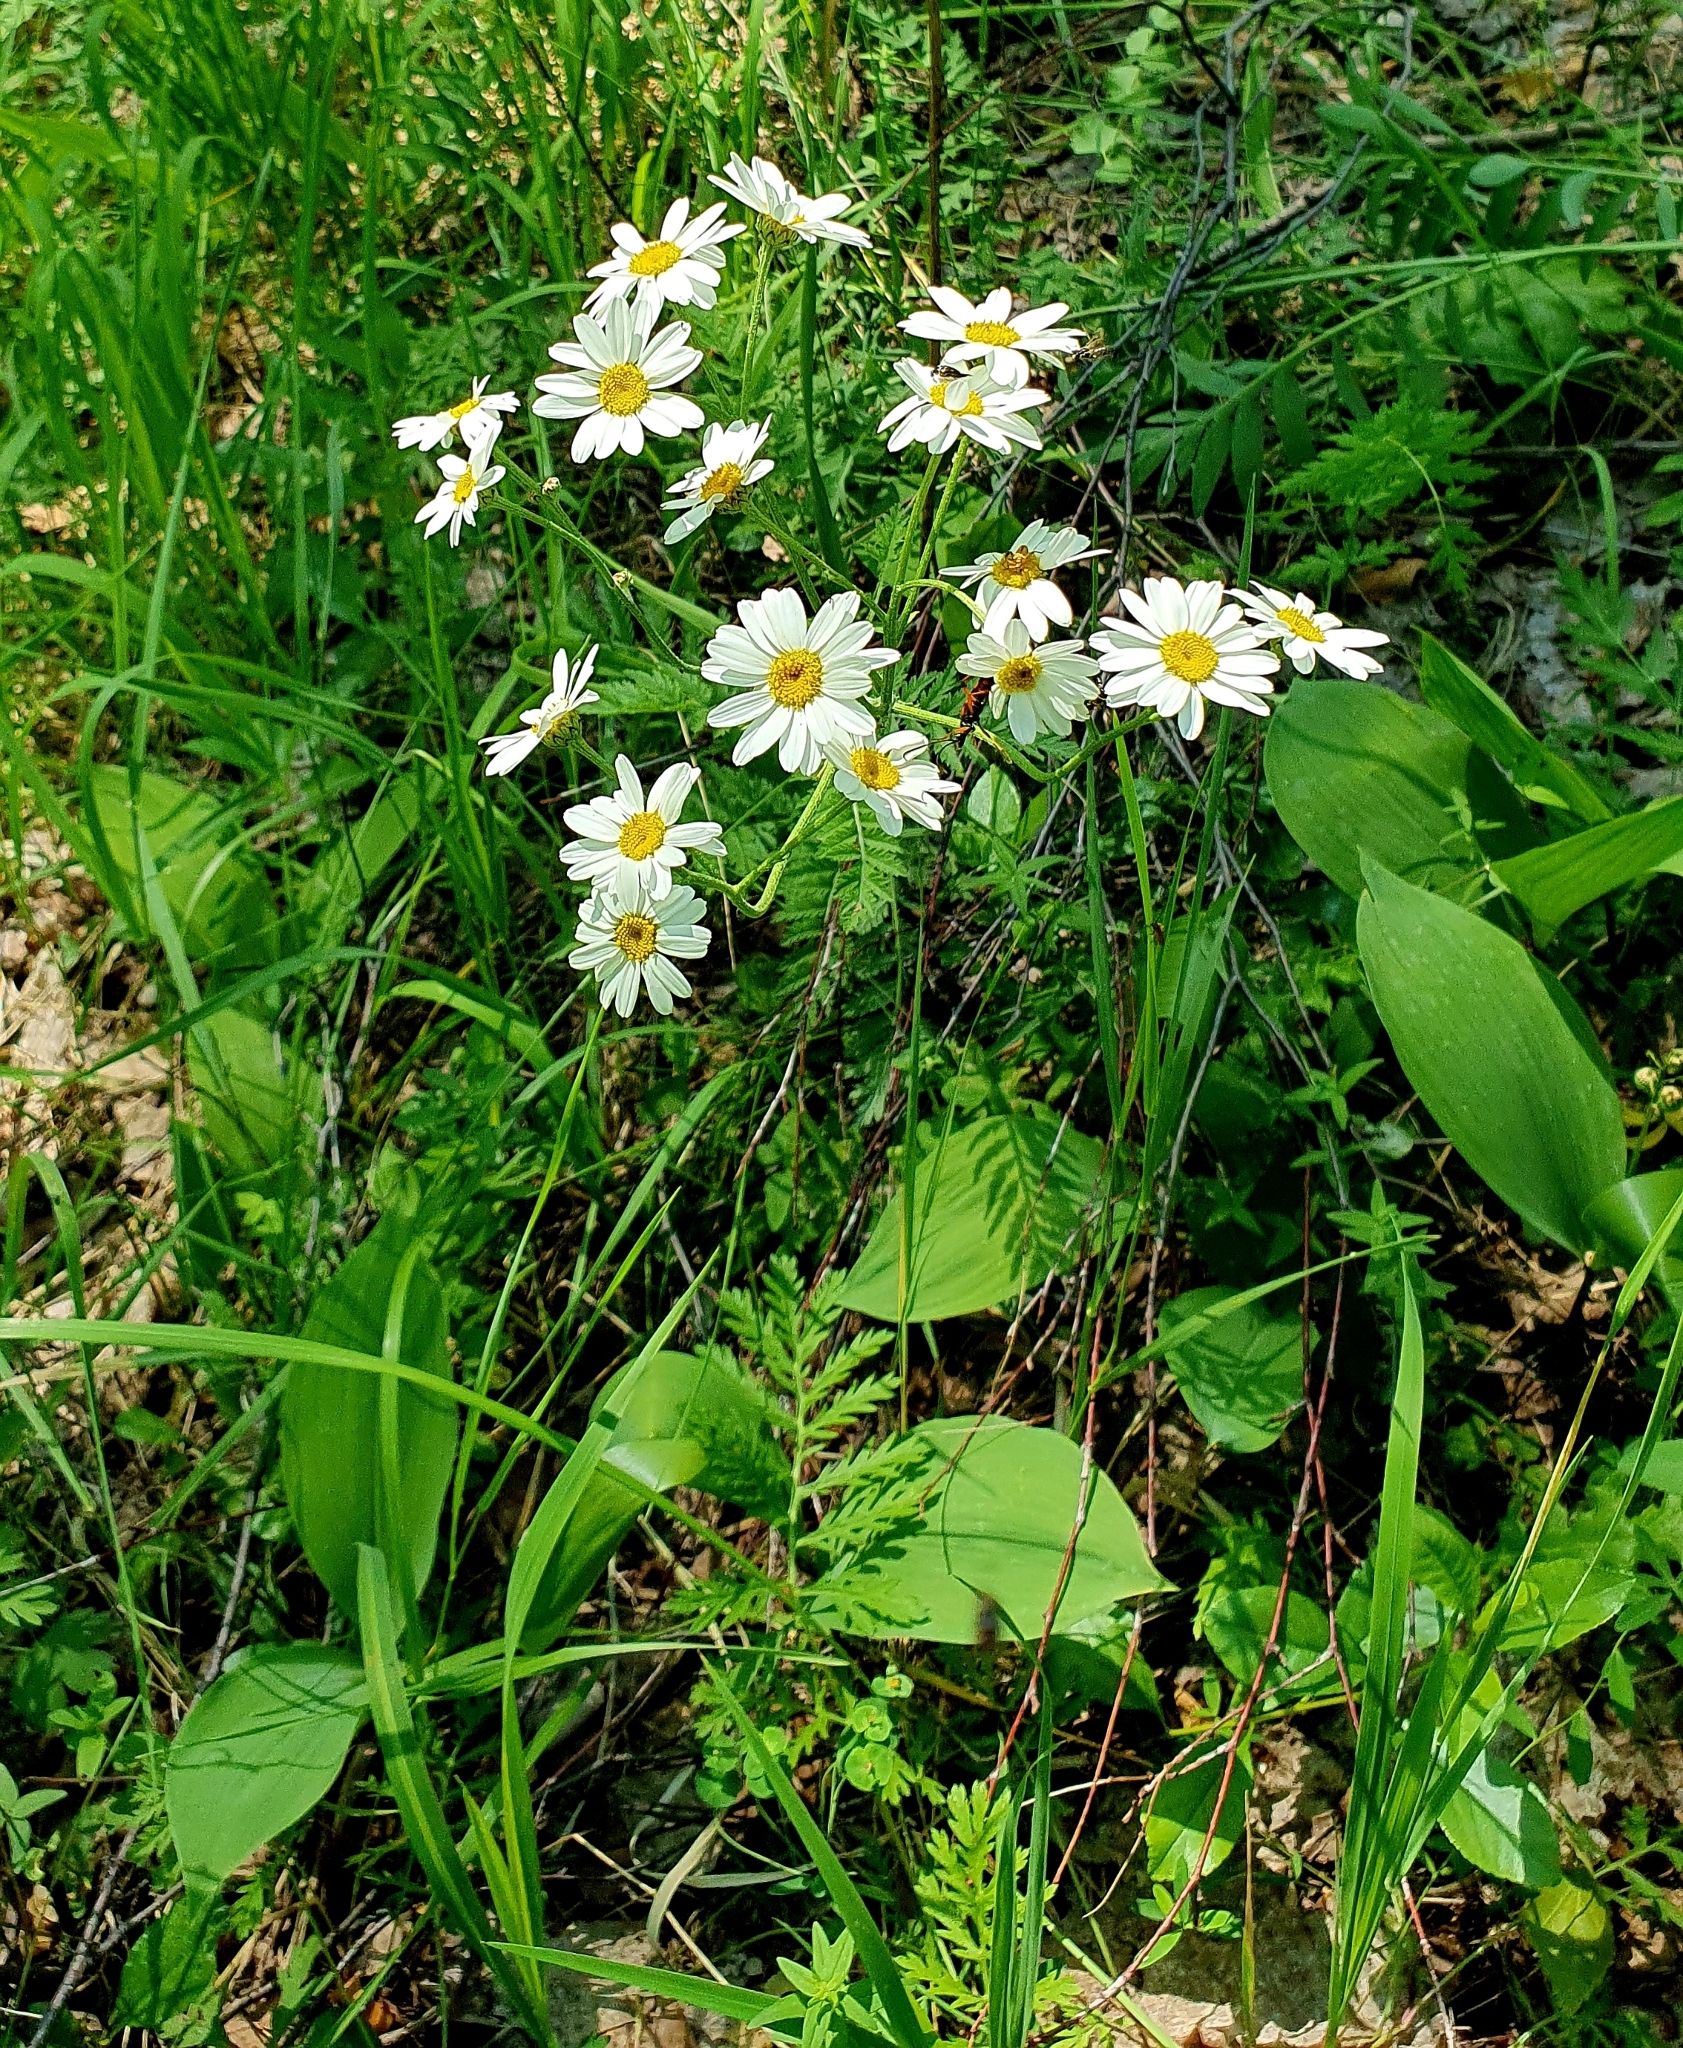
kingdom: Plantae
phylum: Tracheophyta
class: Magnoliopsida
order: Asterales
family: Asteraceae
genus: Tanacetum
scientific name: Tanacetum corymbosum
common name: Scentless feverfew
